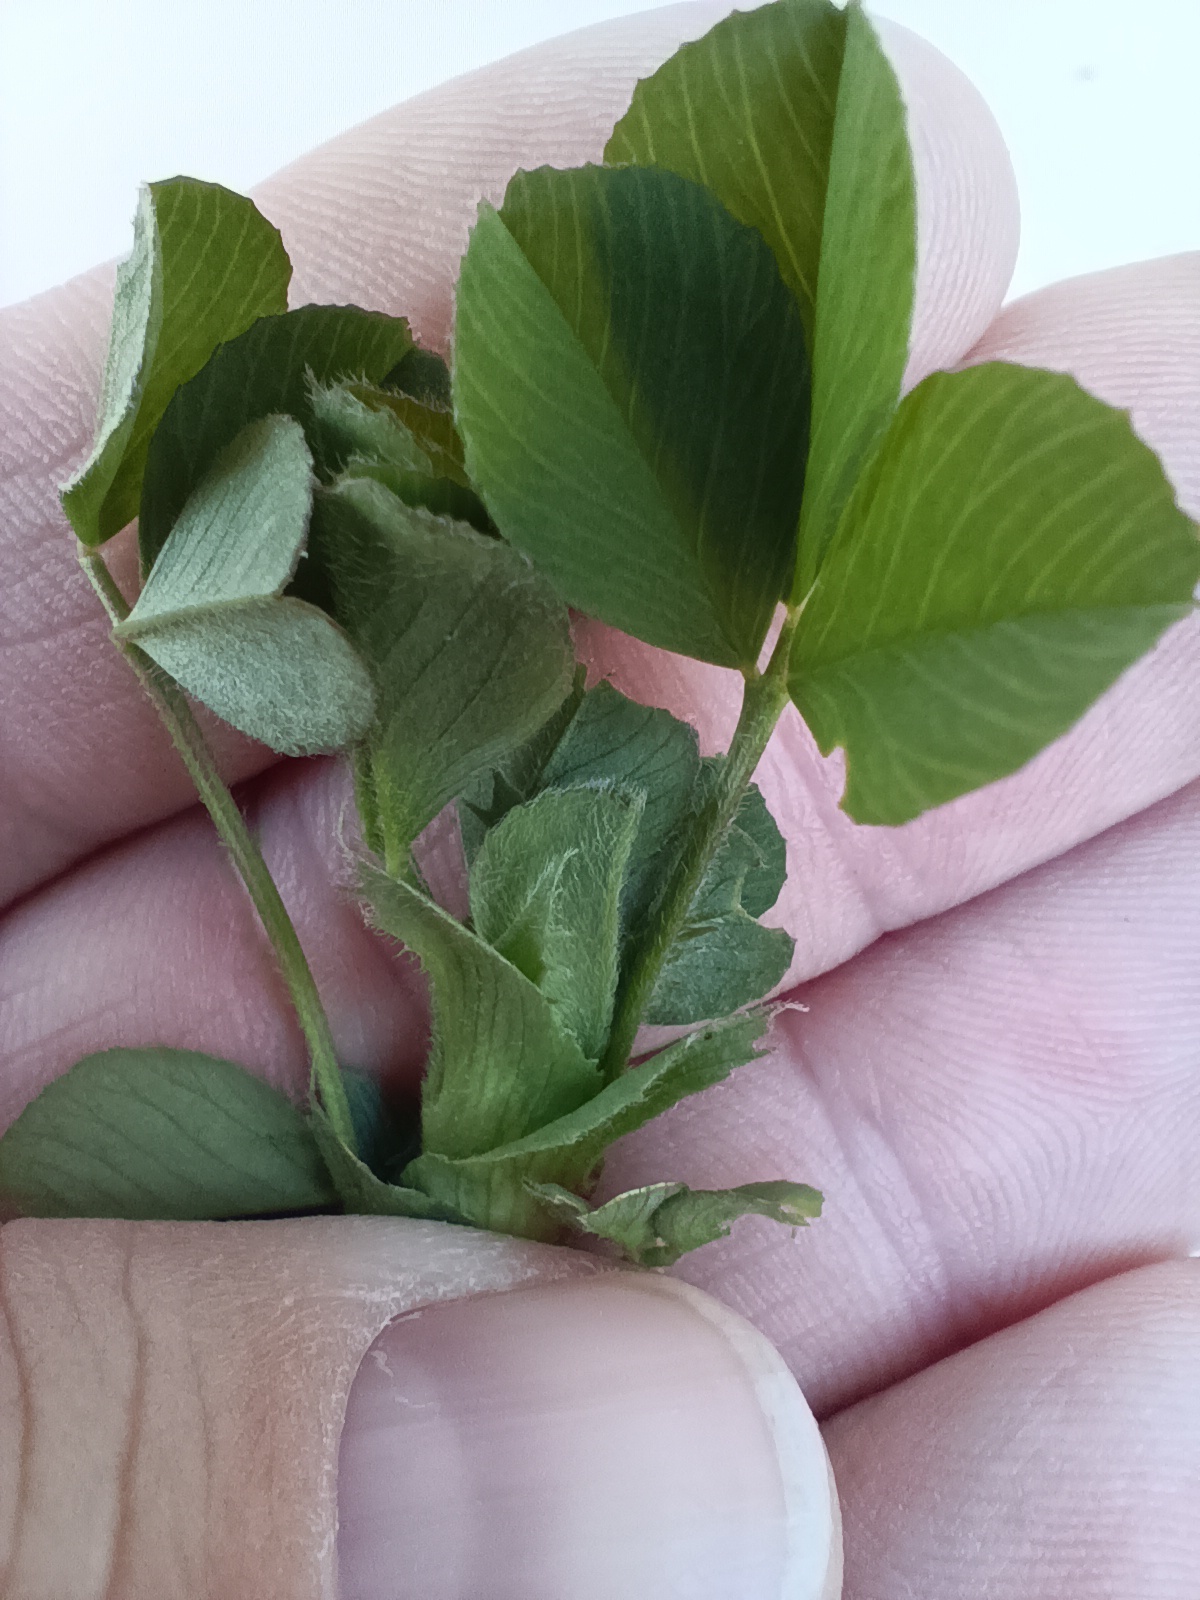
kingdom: Plantae
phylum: Tracheophyta
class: Magnoliopsida
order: Fabales
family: Fabaceae
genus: Medicago
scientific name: Medicago lupulina
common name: Black medick
